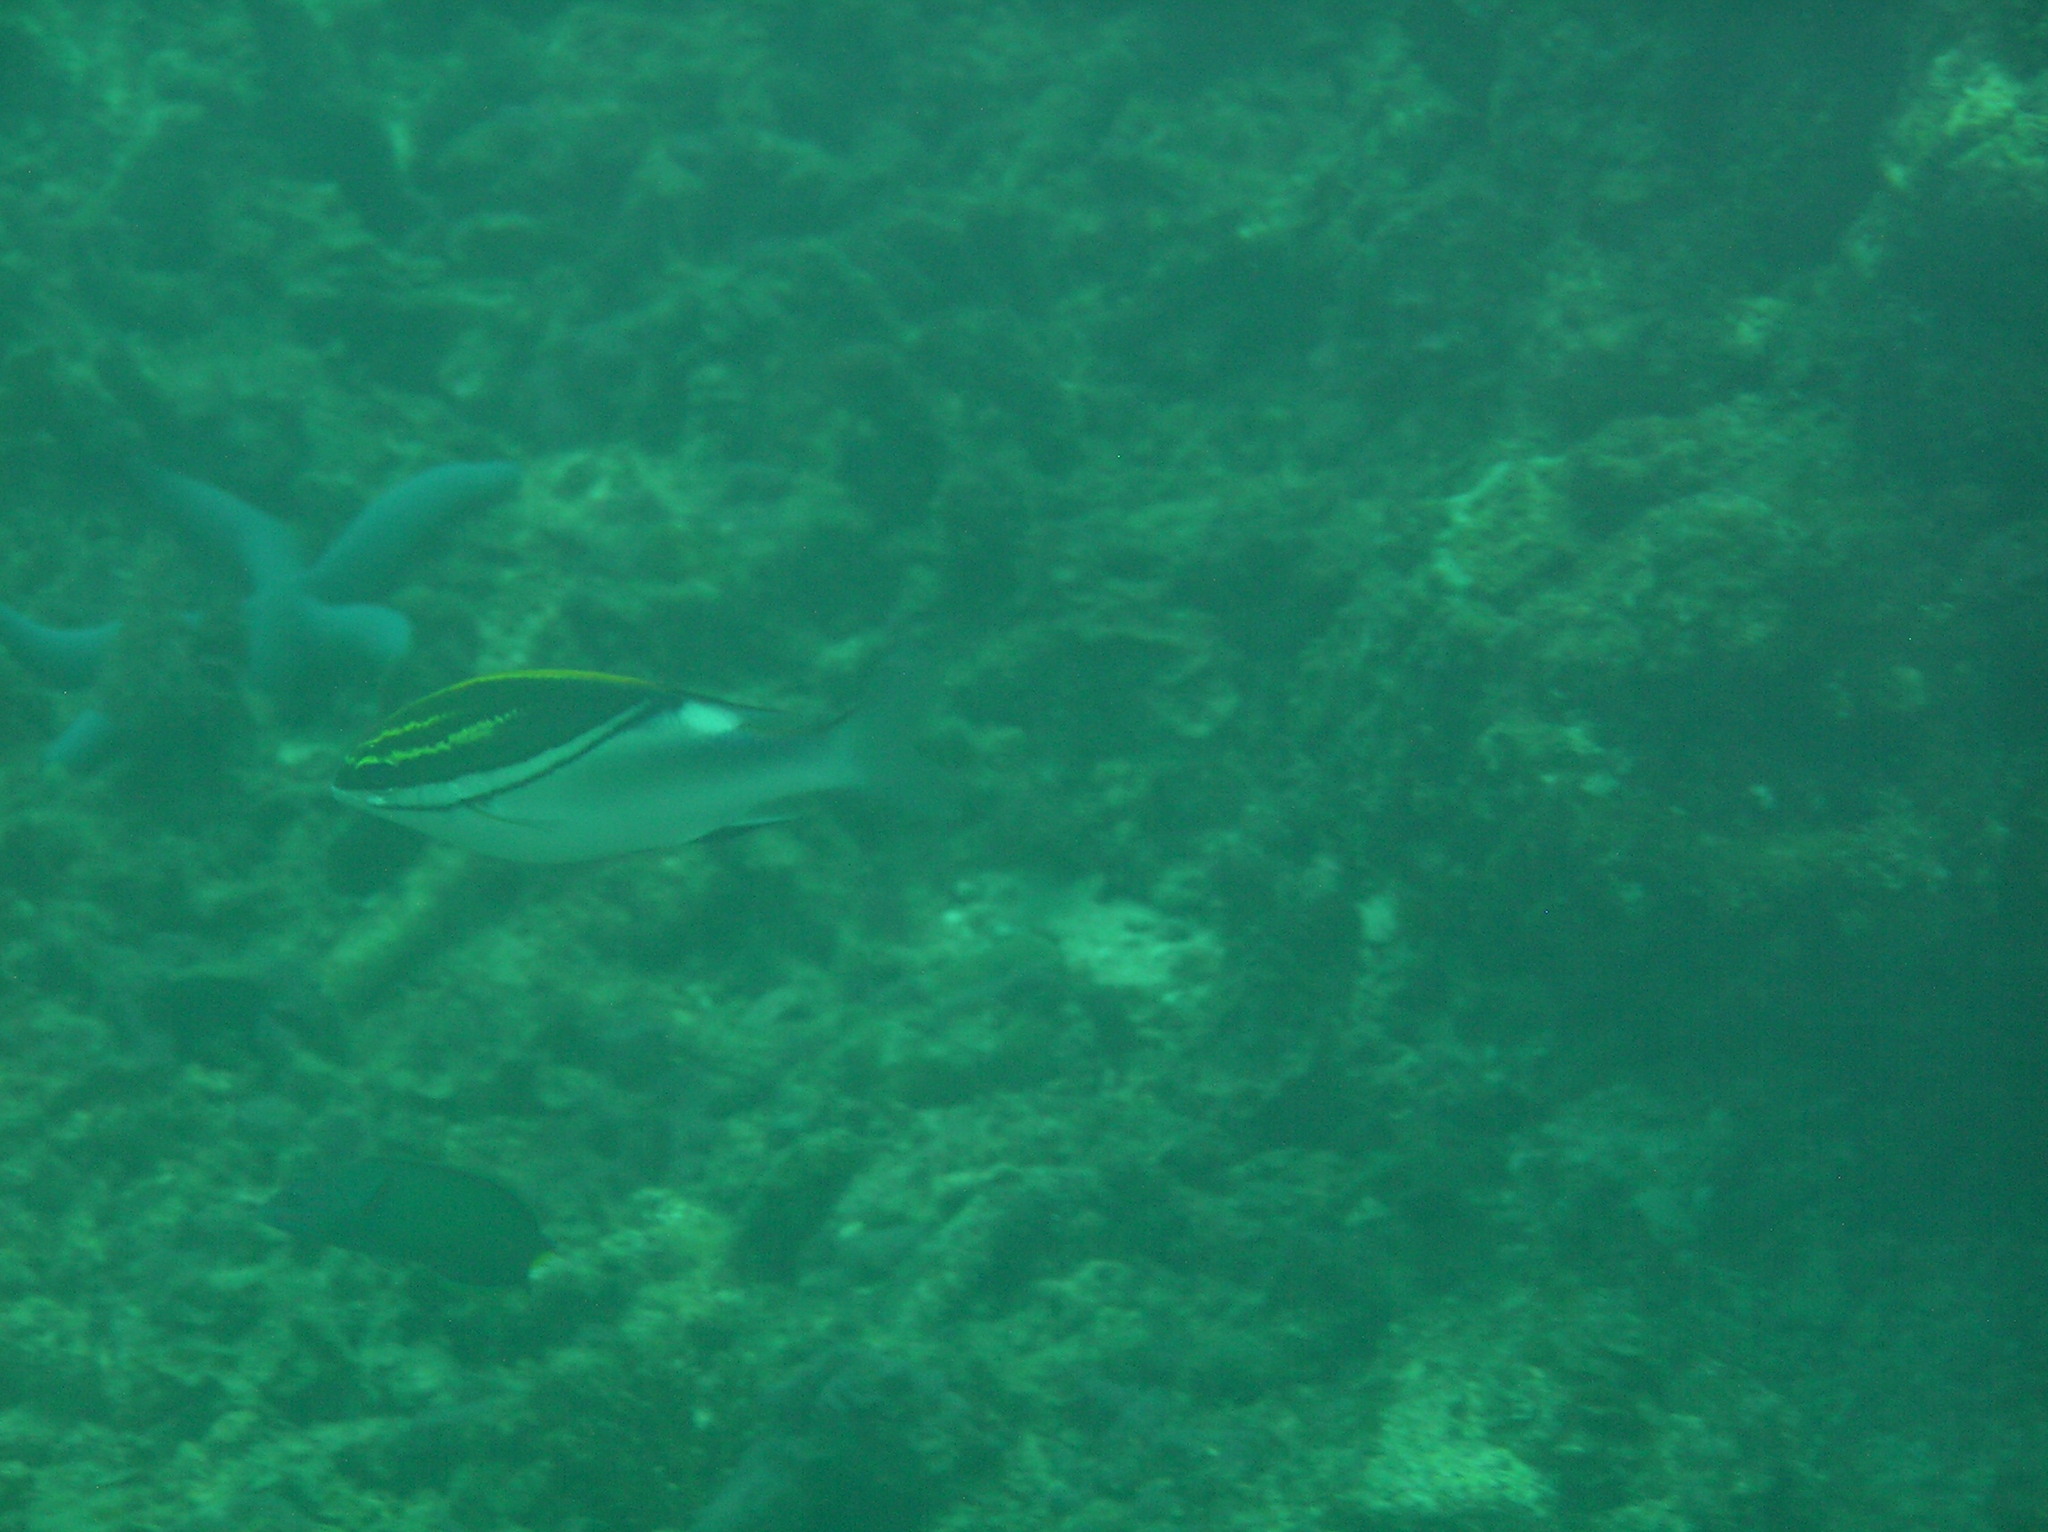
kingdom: Animalia
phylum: Chordata
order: Perciformes
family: Nemipteridae
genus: Scolopsis
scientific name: Scolopsis bilineata
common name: Two-lined monocle bream
